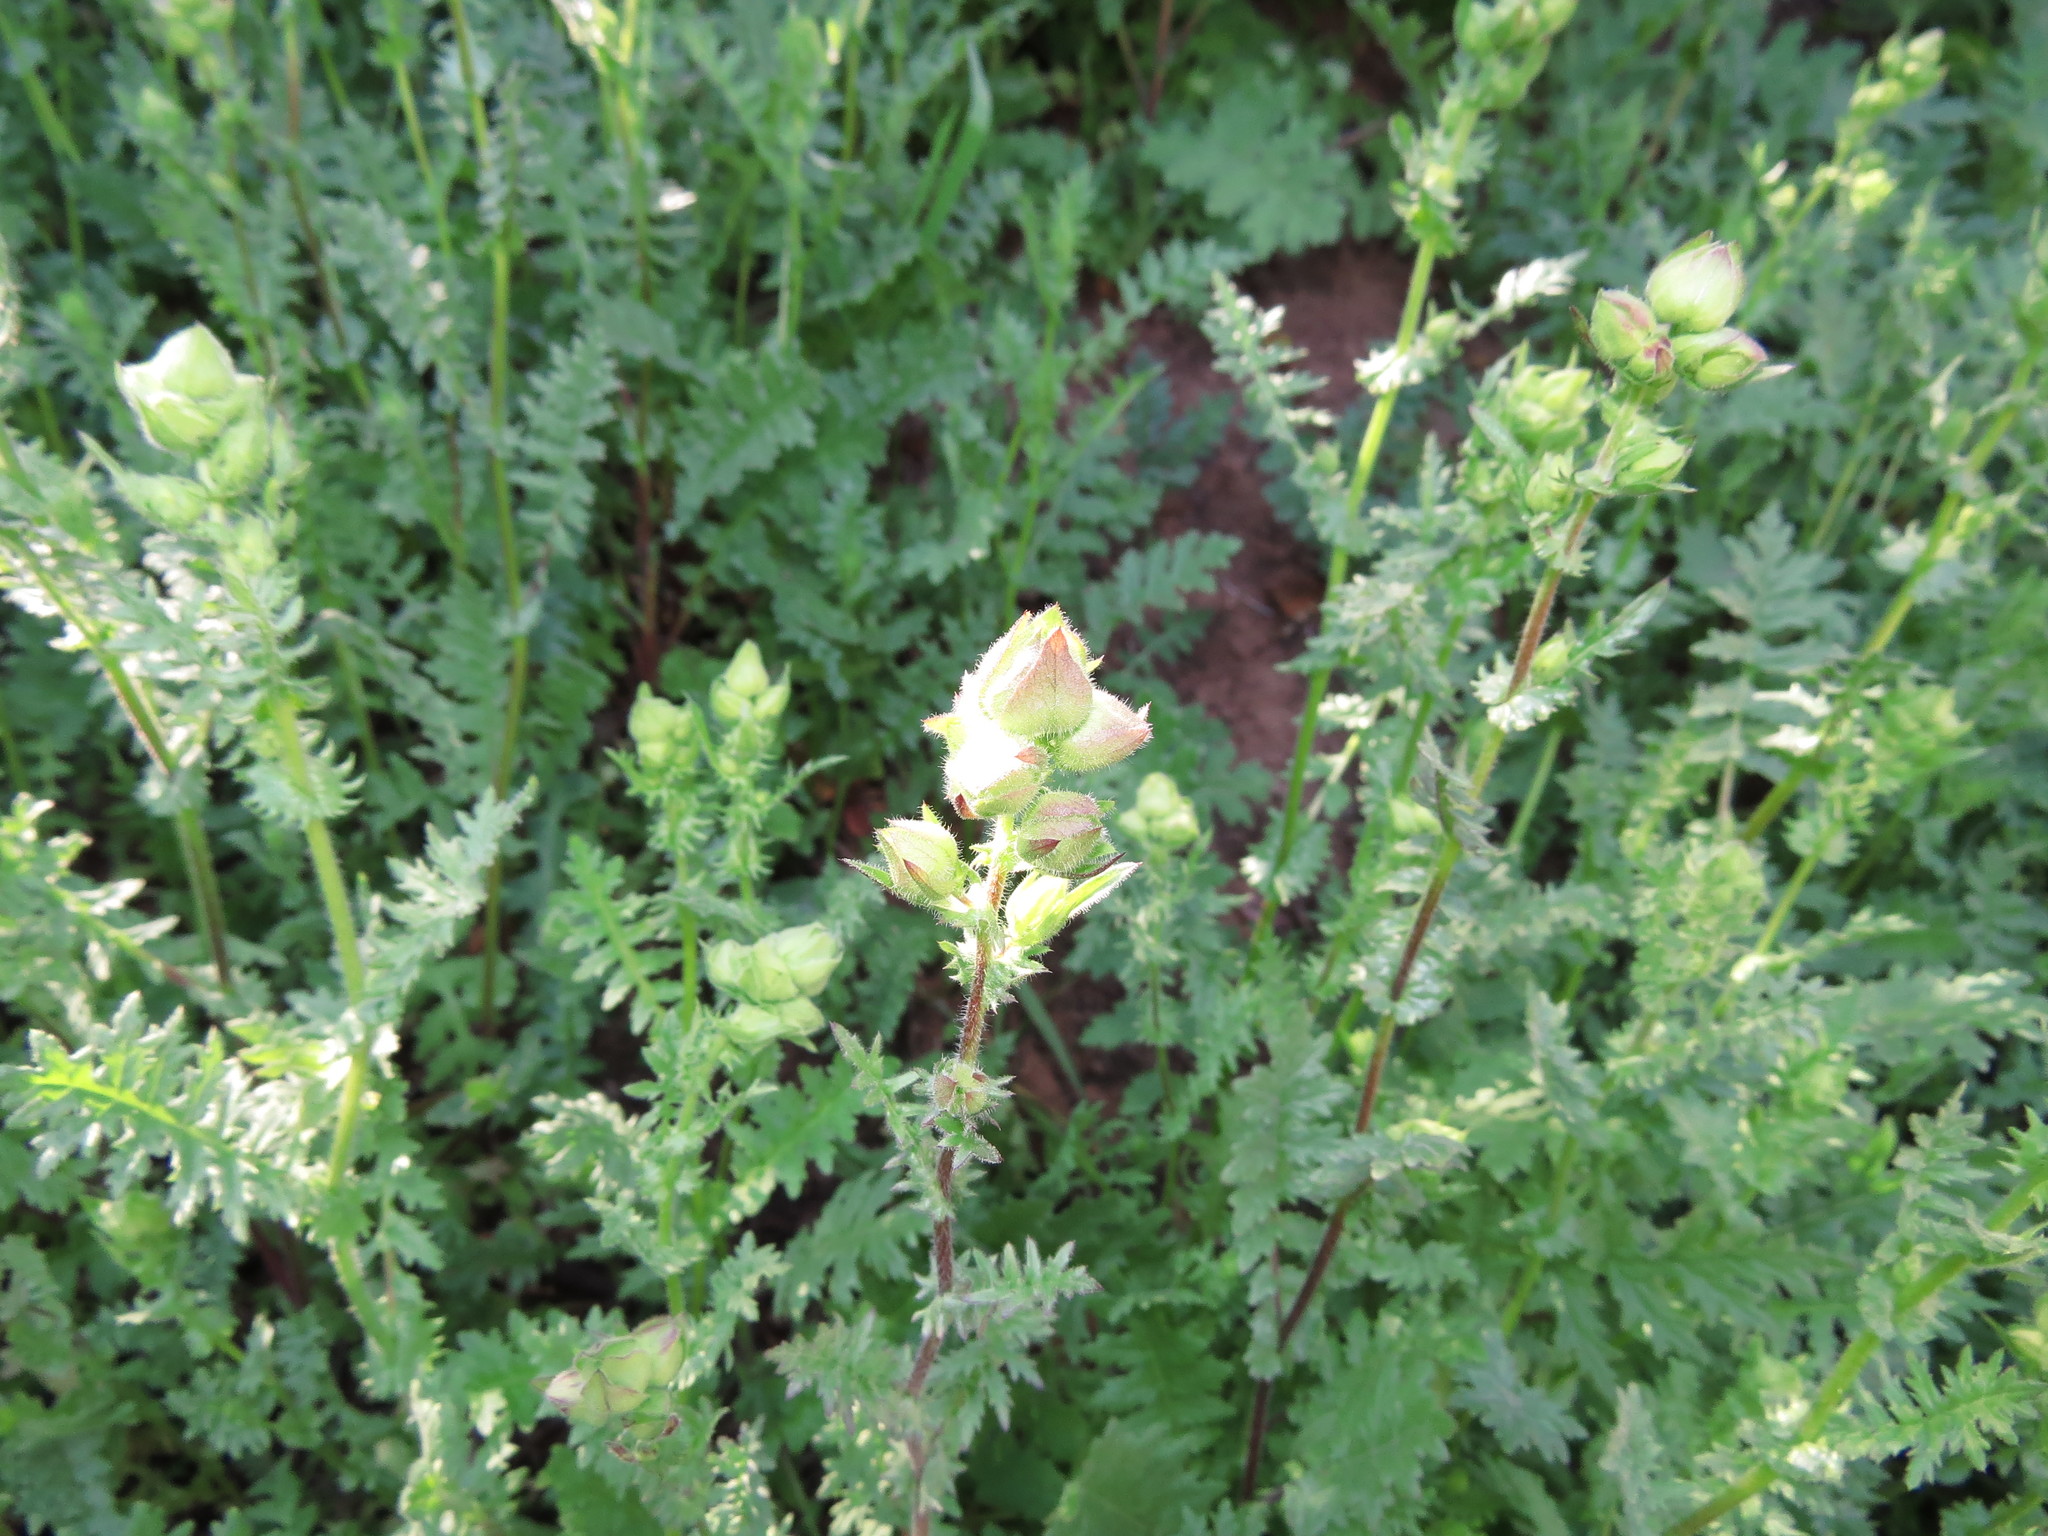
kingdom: Plantae
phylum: Tracheophyta
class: Magnoliopsida
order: Asterales
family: Asteraceae
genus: Moscharia
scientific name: Moscharia pinnatifida
